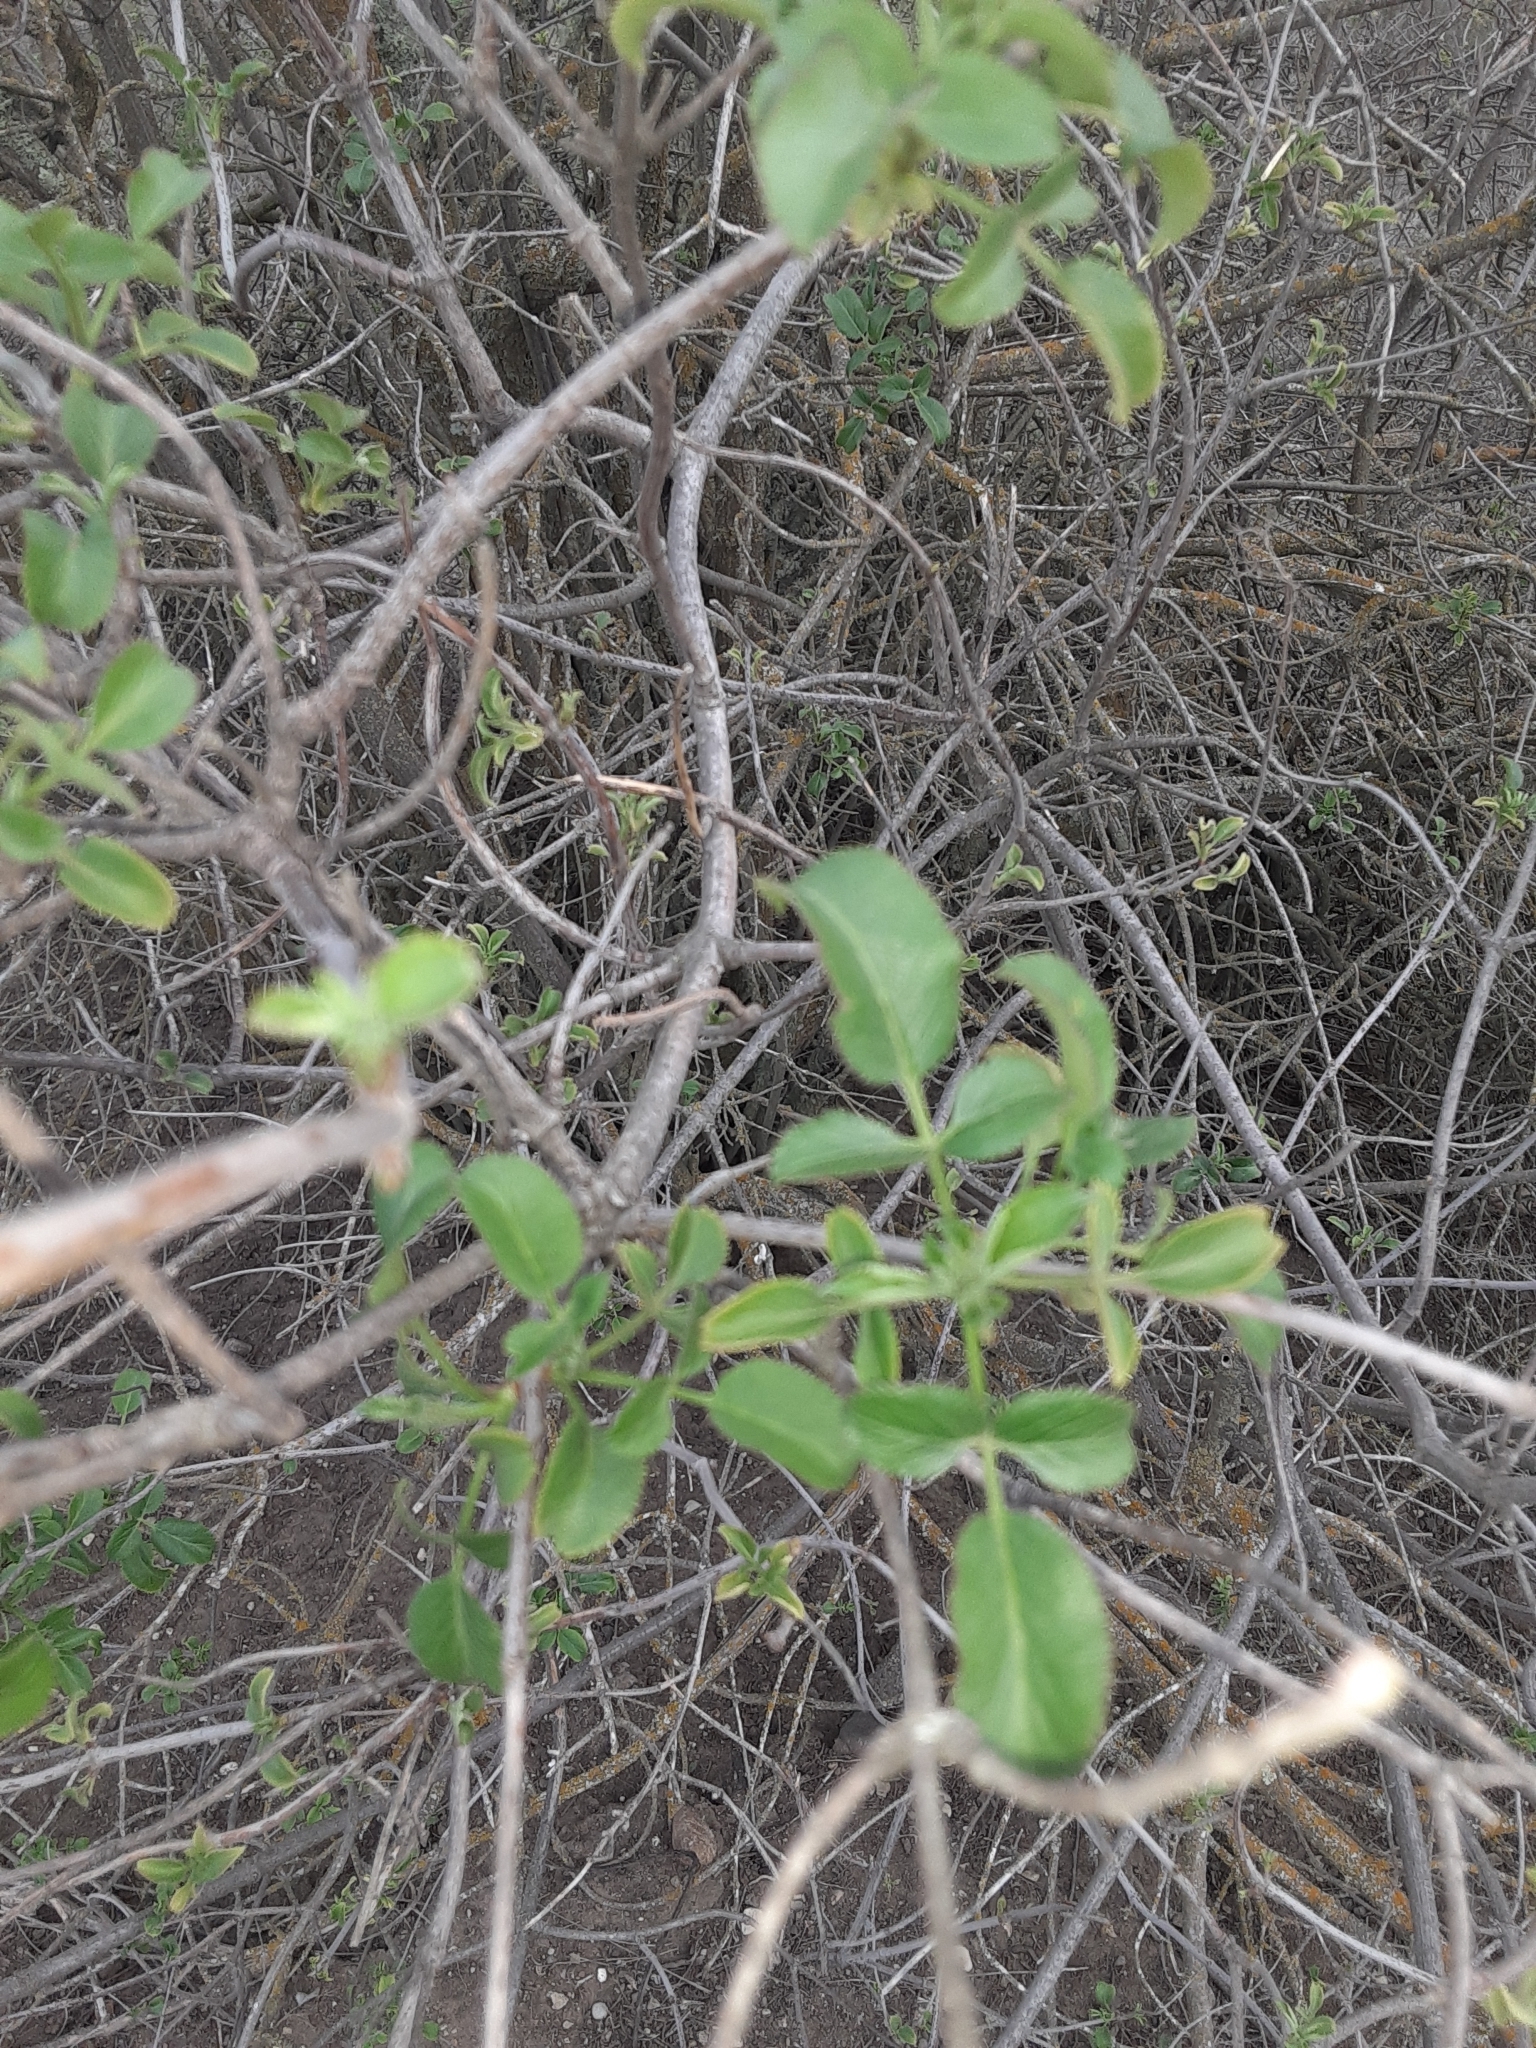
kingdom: Plantae
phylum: Tracheophyta
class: Magnoliopsida
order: Dipsacales
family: Viburnaceae
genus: Sambucus
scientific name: Sambucus cerulea
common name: Blue elder
